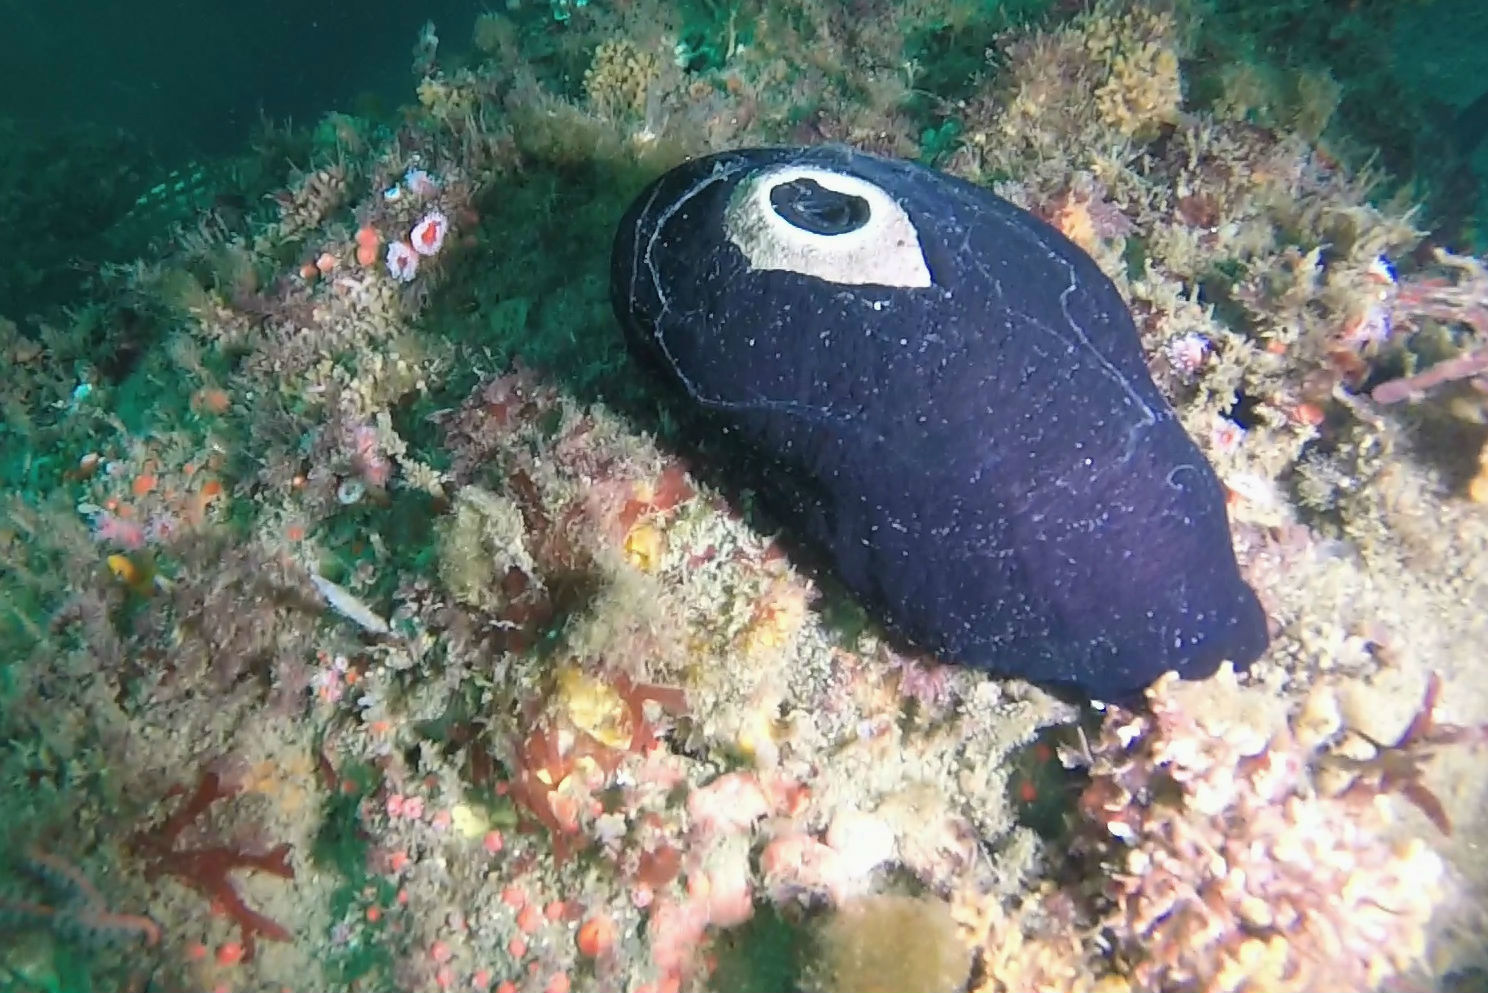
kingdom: Animalia
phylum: Mollusca
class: Gastropoda
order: Lepetellida
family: Fissurellidae
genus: Megathura
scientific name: Megathura crenulata
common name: Giant keyhole limpet
